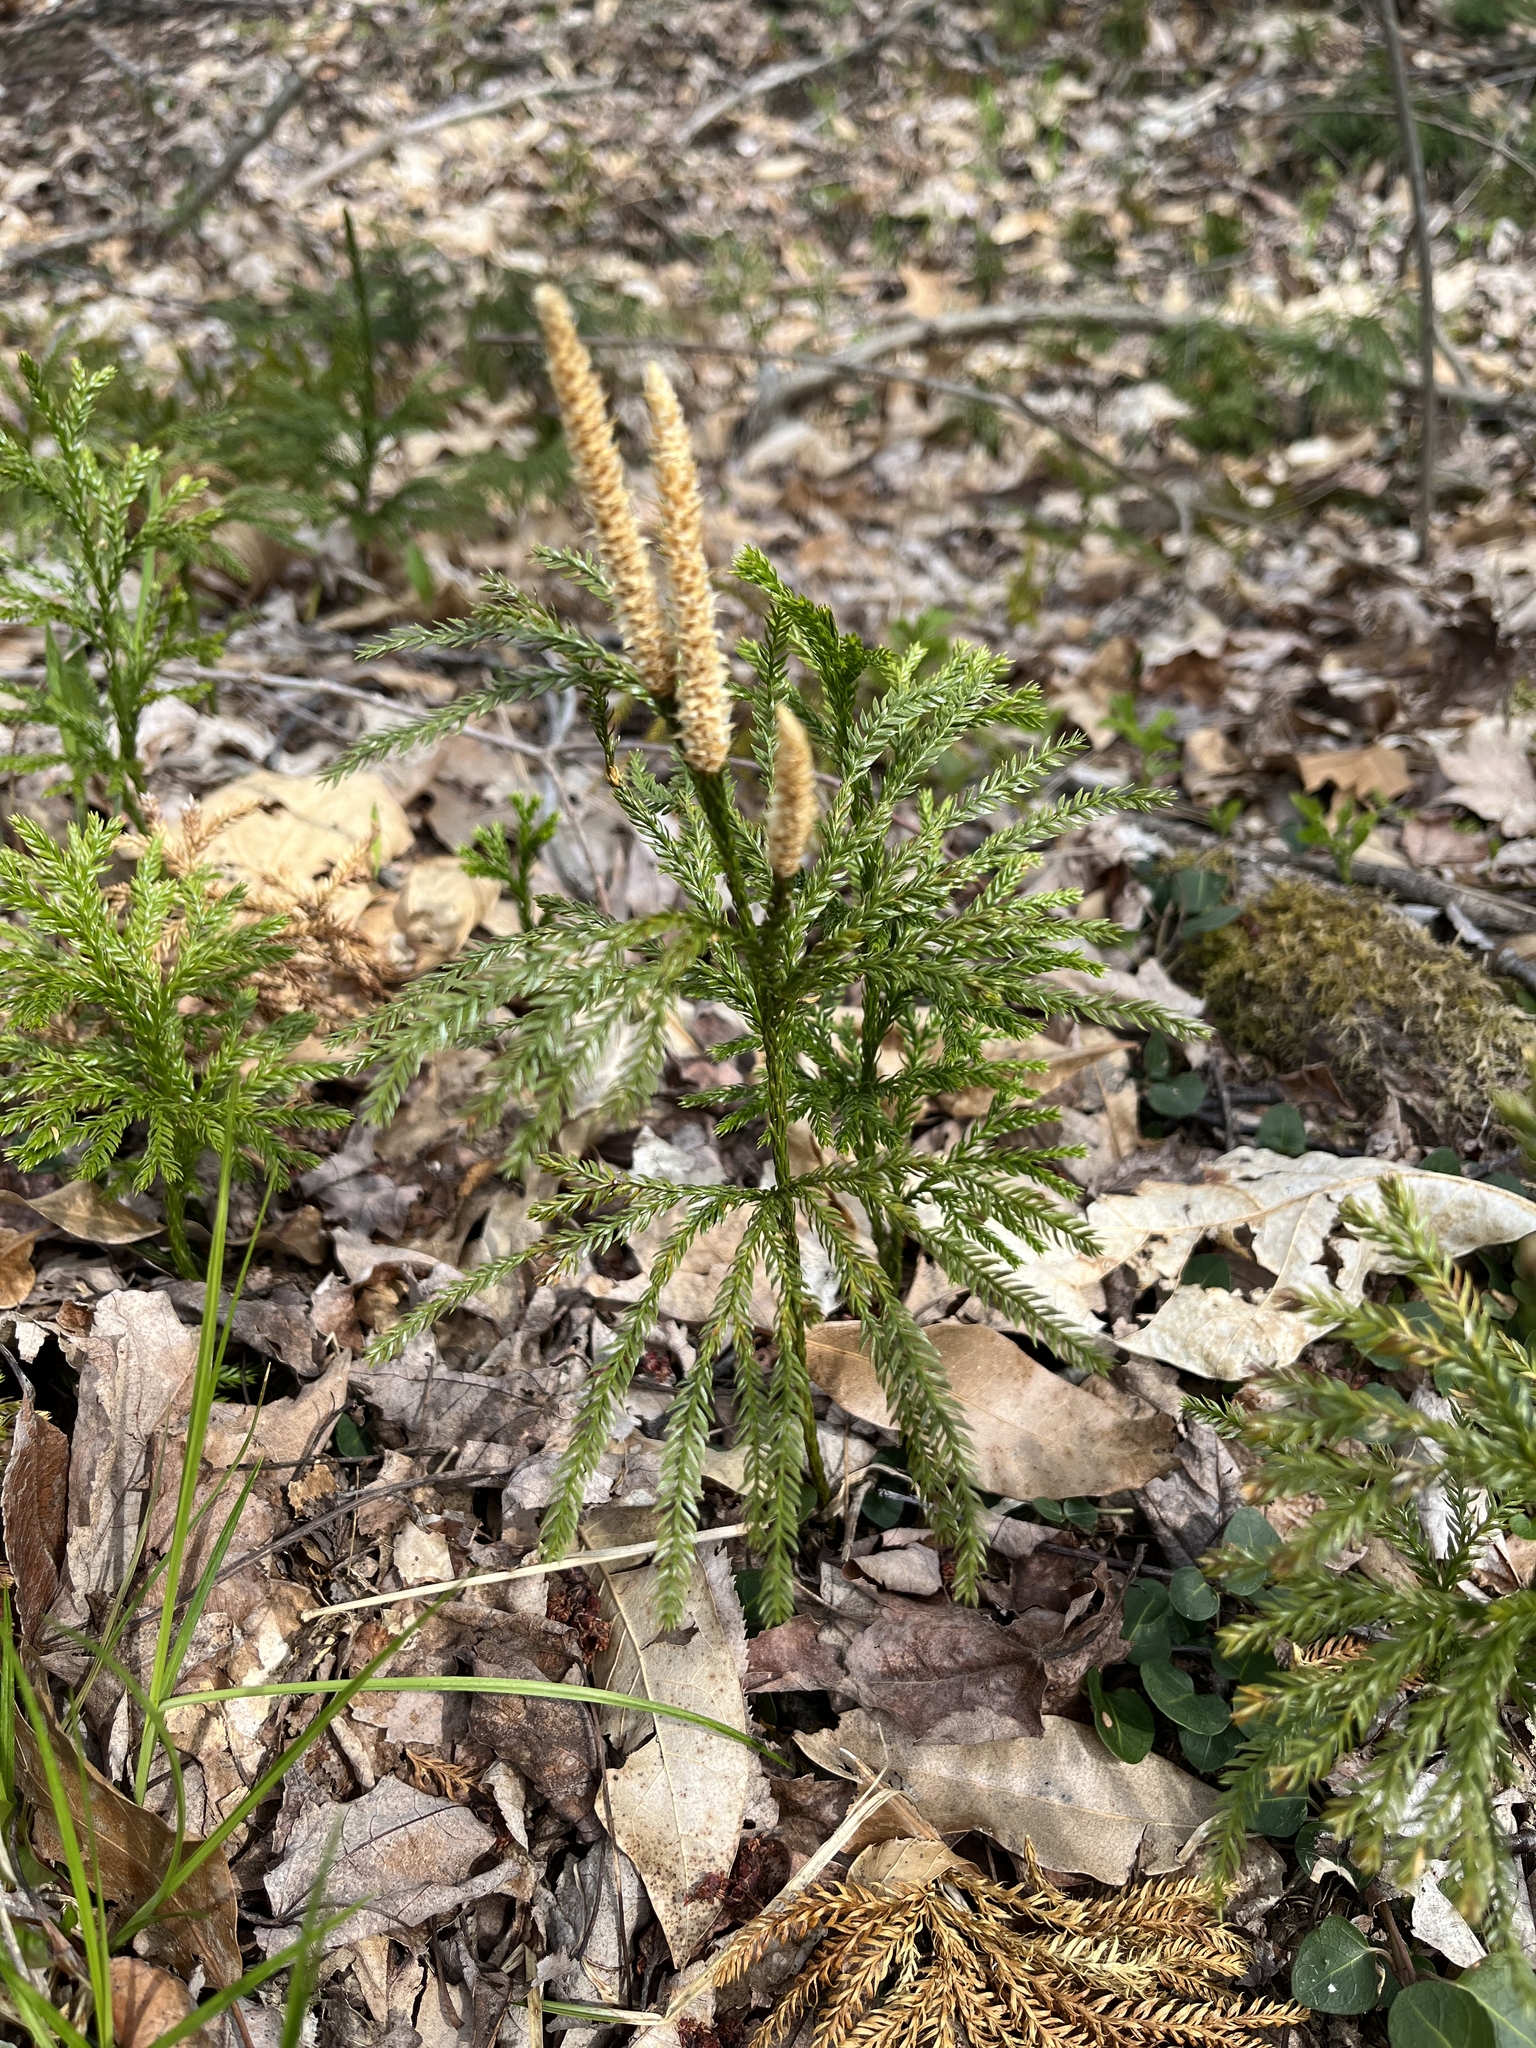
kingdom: Plantae
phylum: Tracheophyta
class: Lycopodiopsida
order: Lycopodiales
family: Lycopodiaceae
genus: Dendrolycopodium
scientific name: Dendrolycopodium obscurum
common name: Common ground-pine
